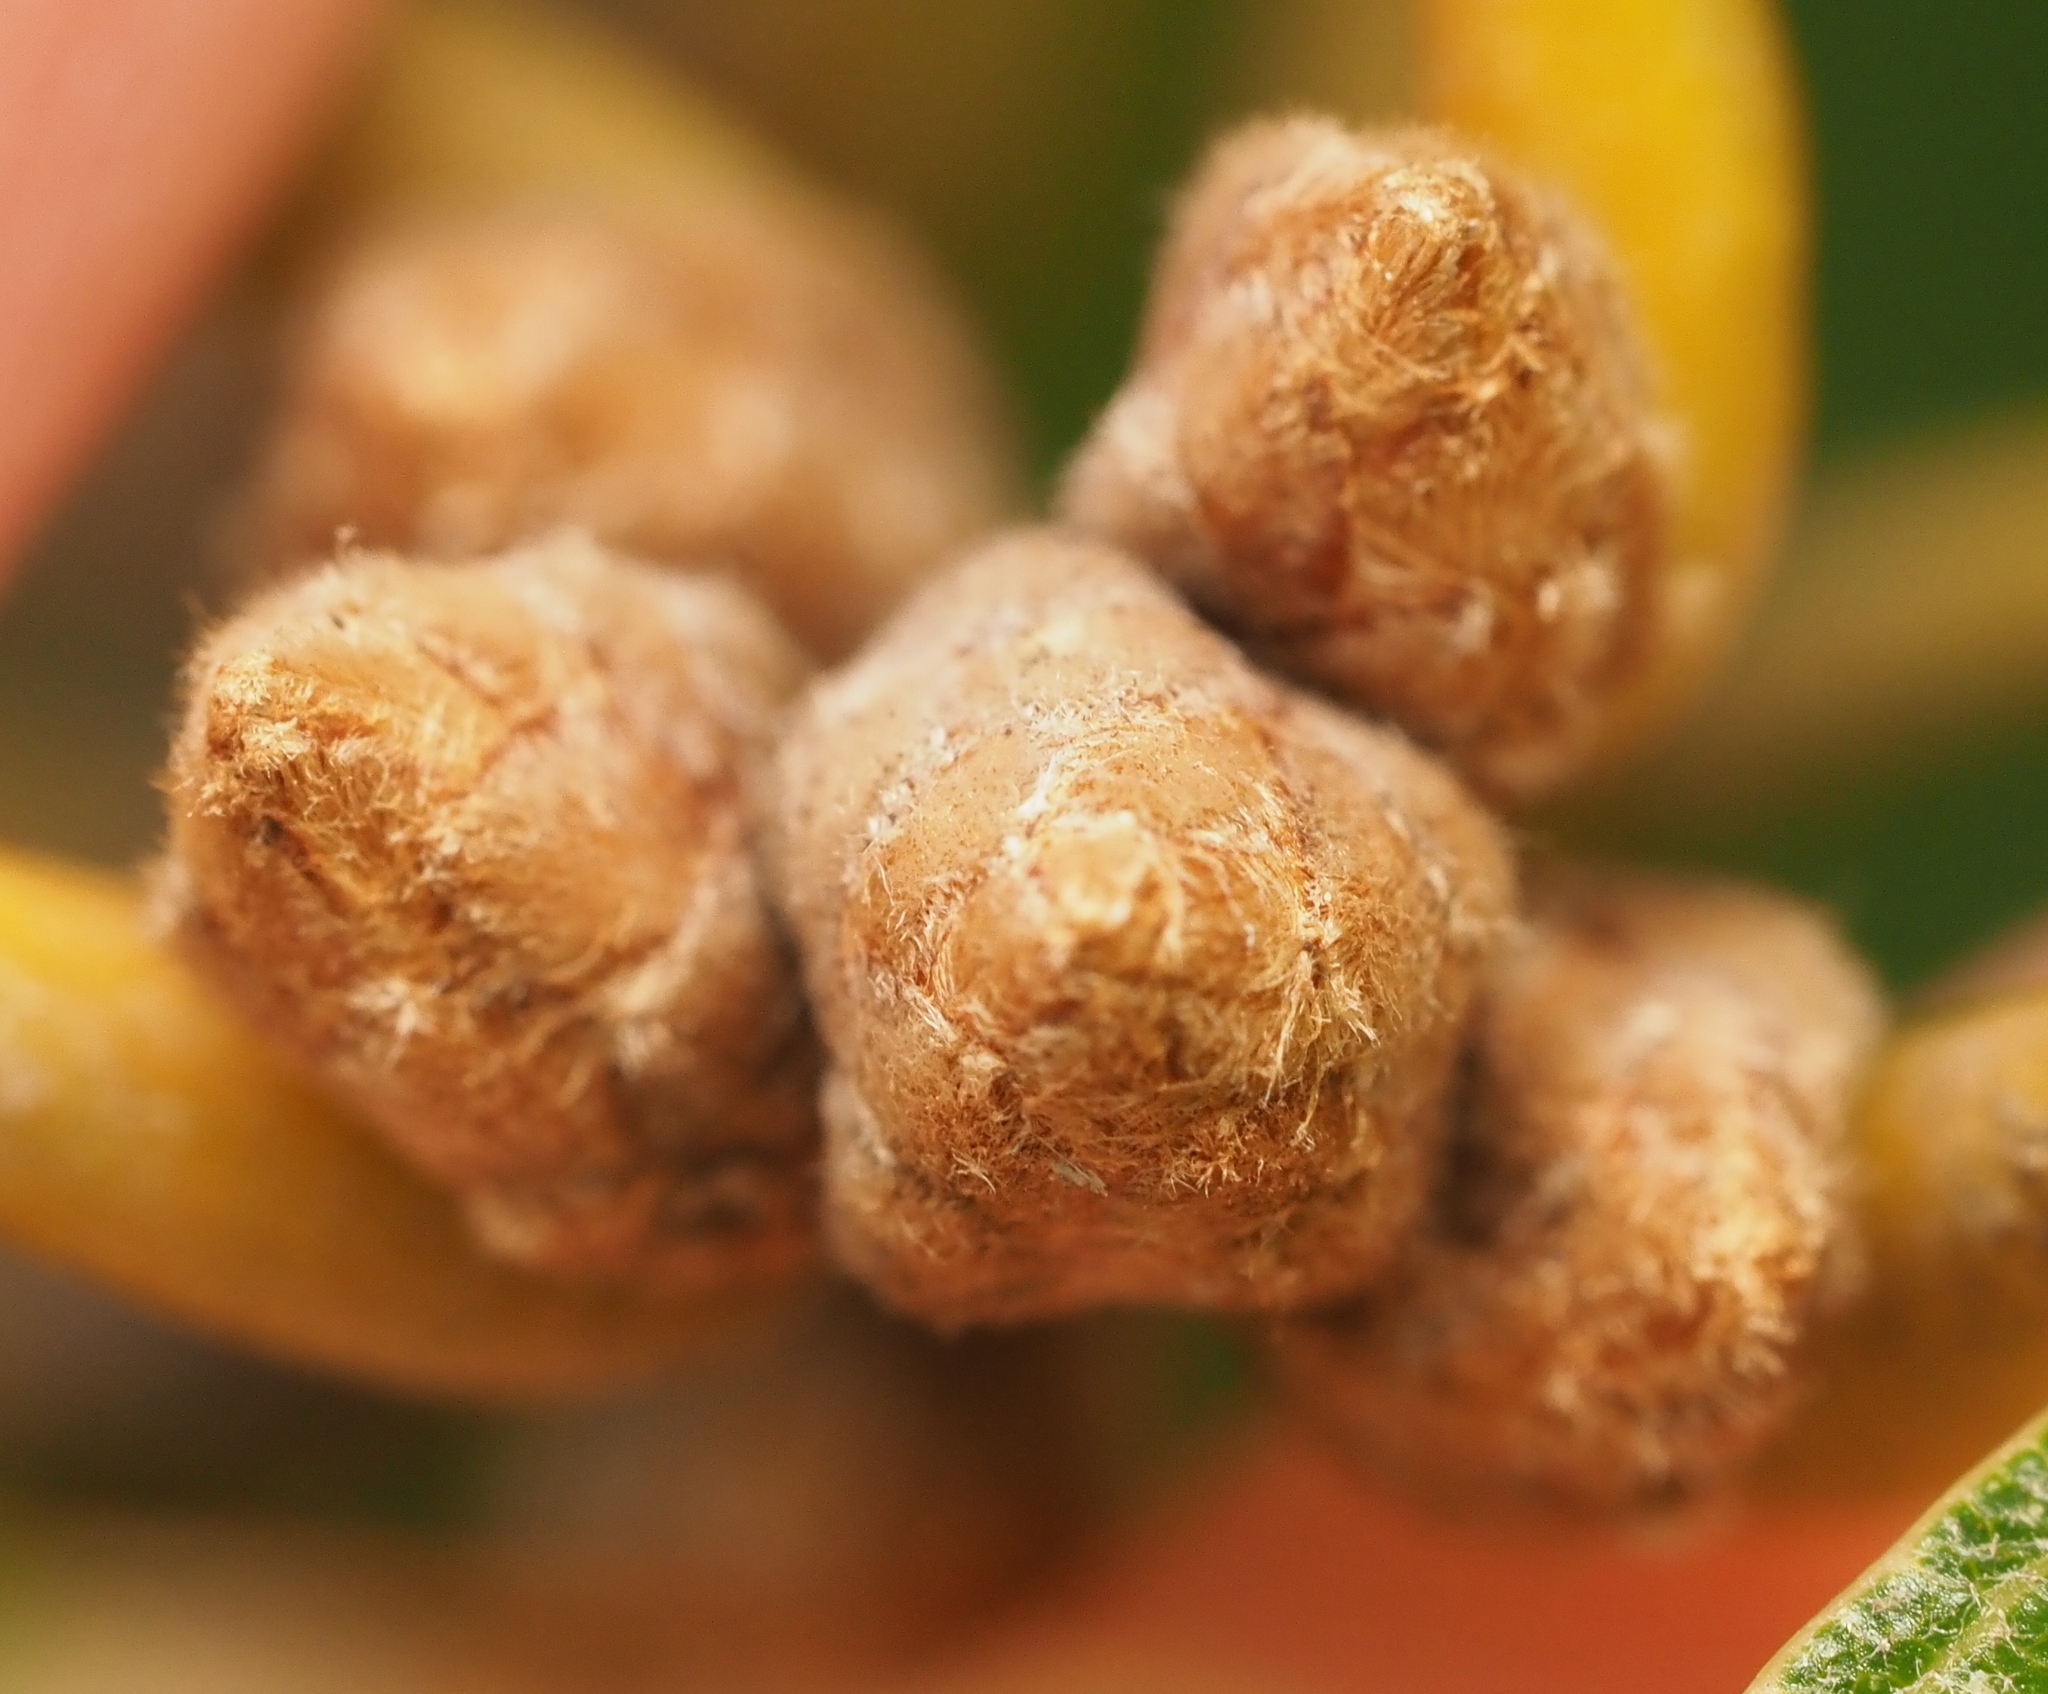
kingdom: Plantae
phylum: Tracheophyta
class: Magnoliopsida
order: Fagales
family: Fagaceae
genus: Quercus
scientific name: Quercus velutina
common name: Black oak
